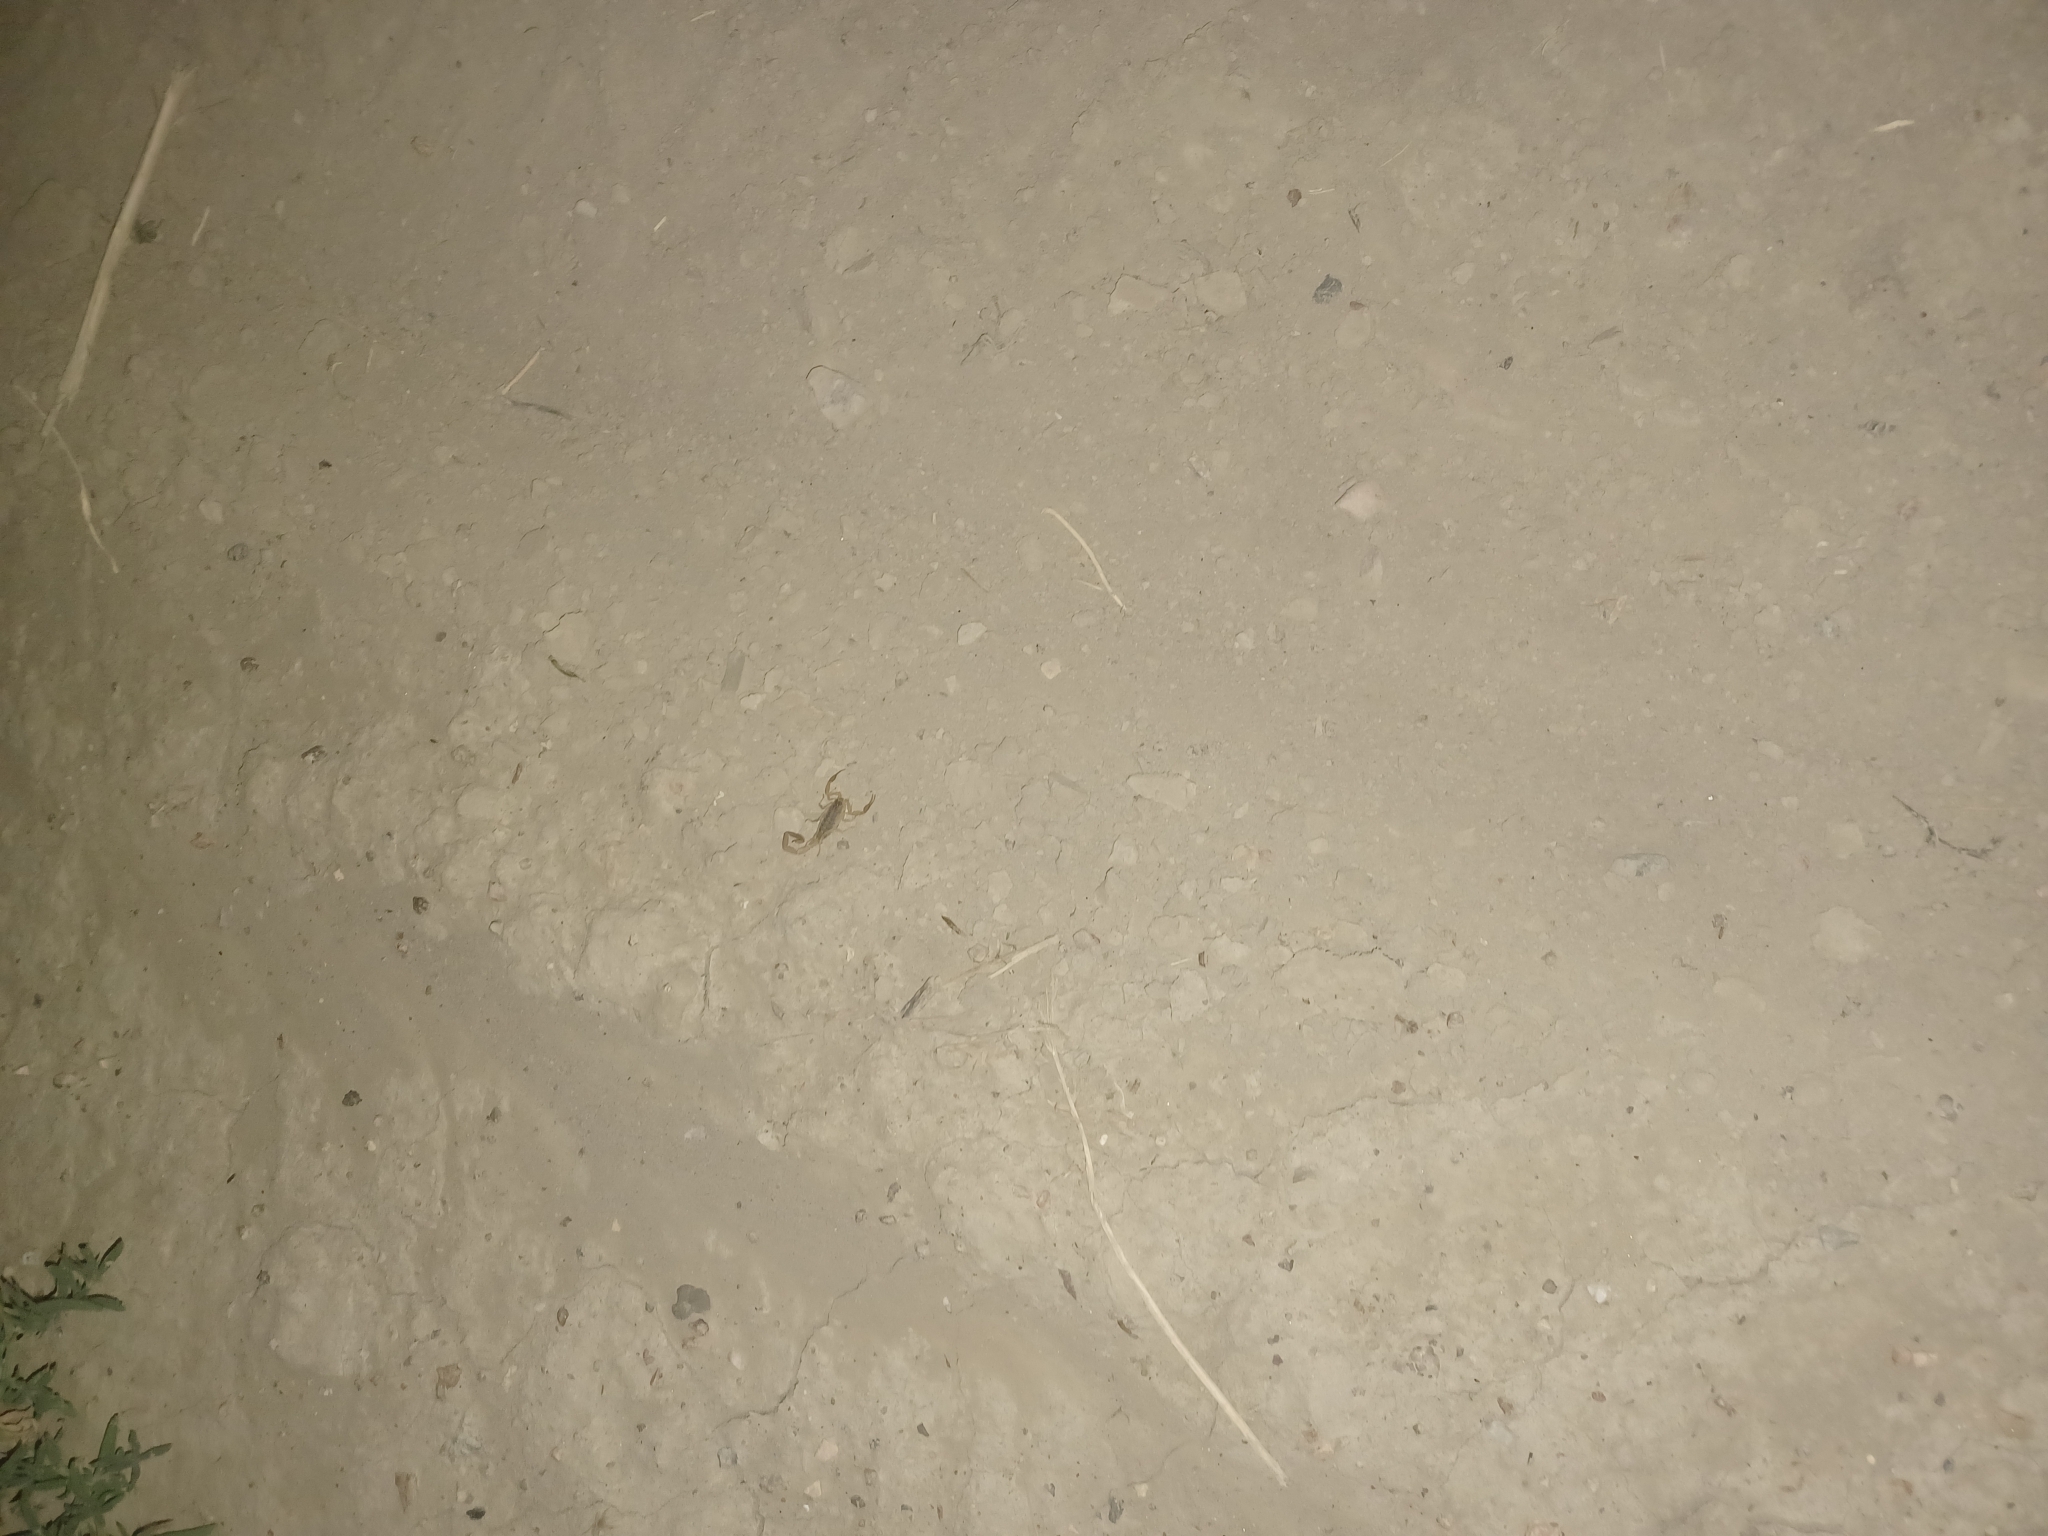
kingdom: Animalia
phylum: Arthropoda
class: Arachnida
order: Scorpiones
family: Buthidae
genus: Centruroides
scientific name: Centruroides vittatus
